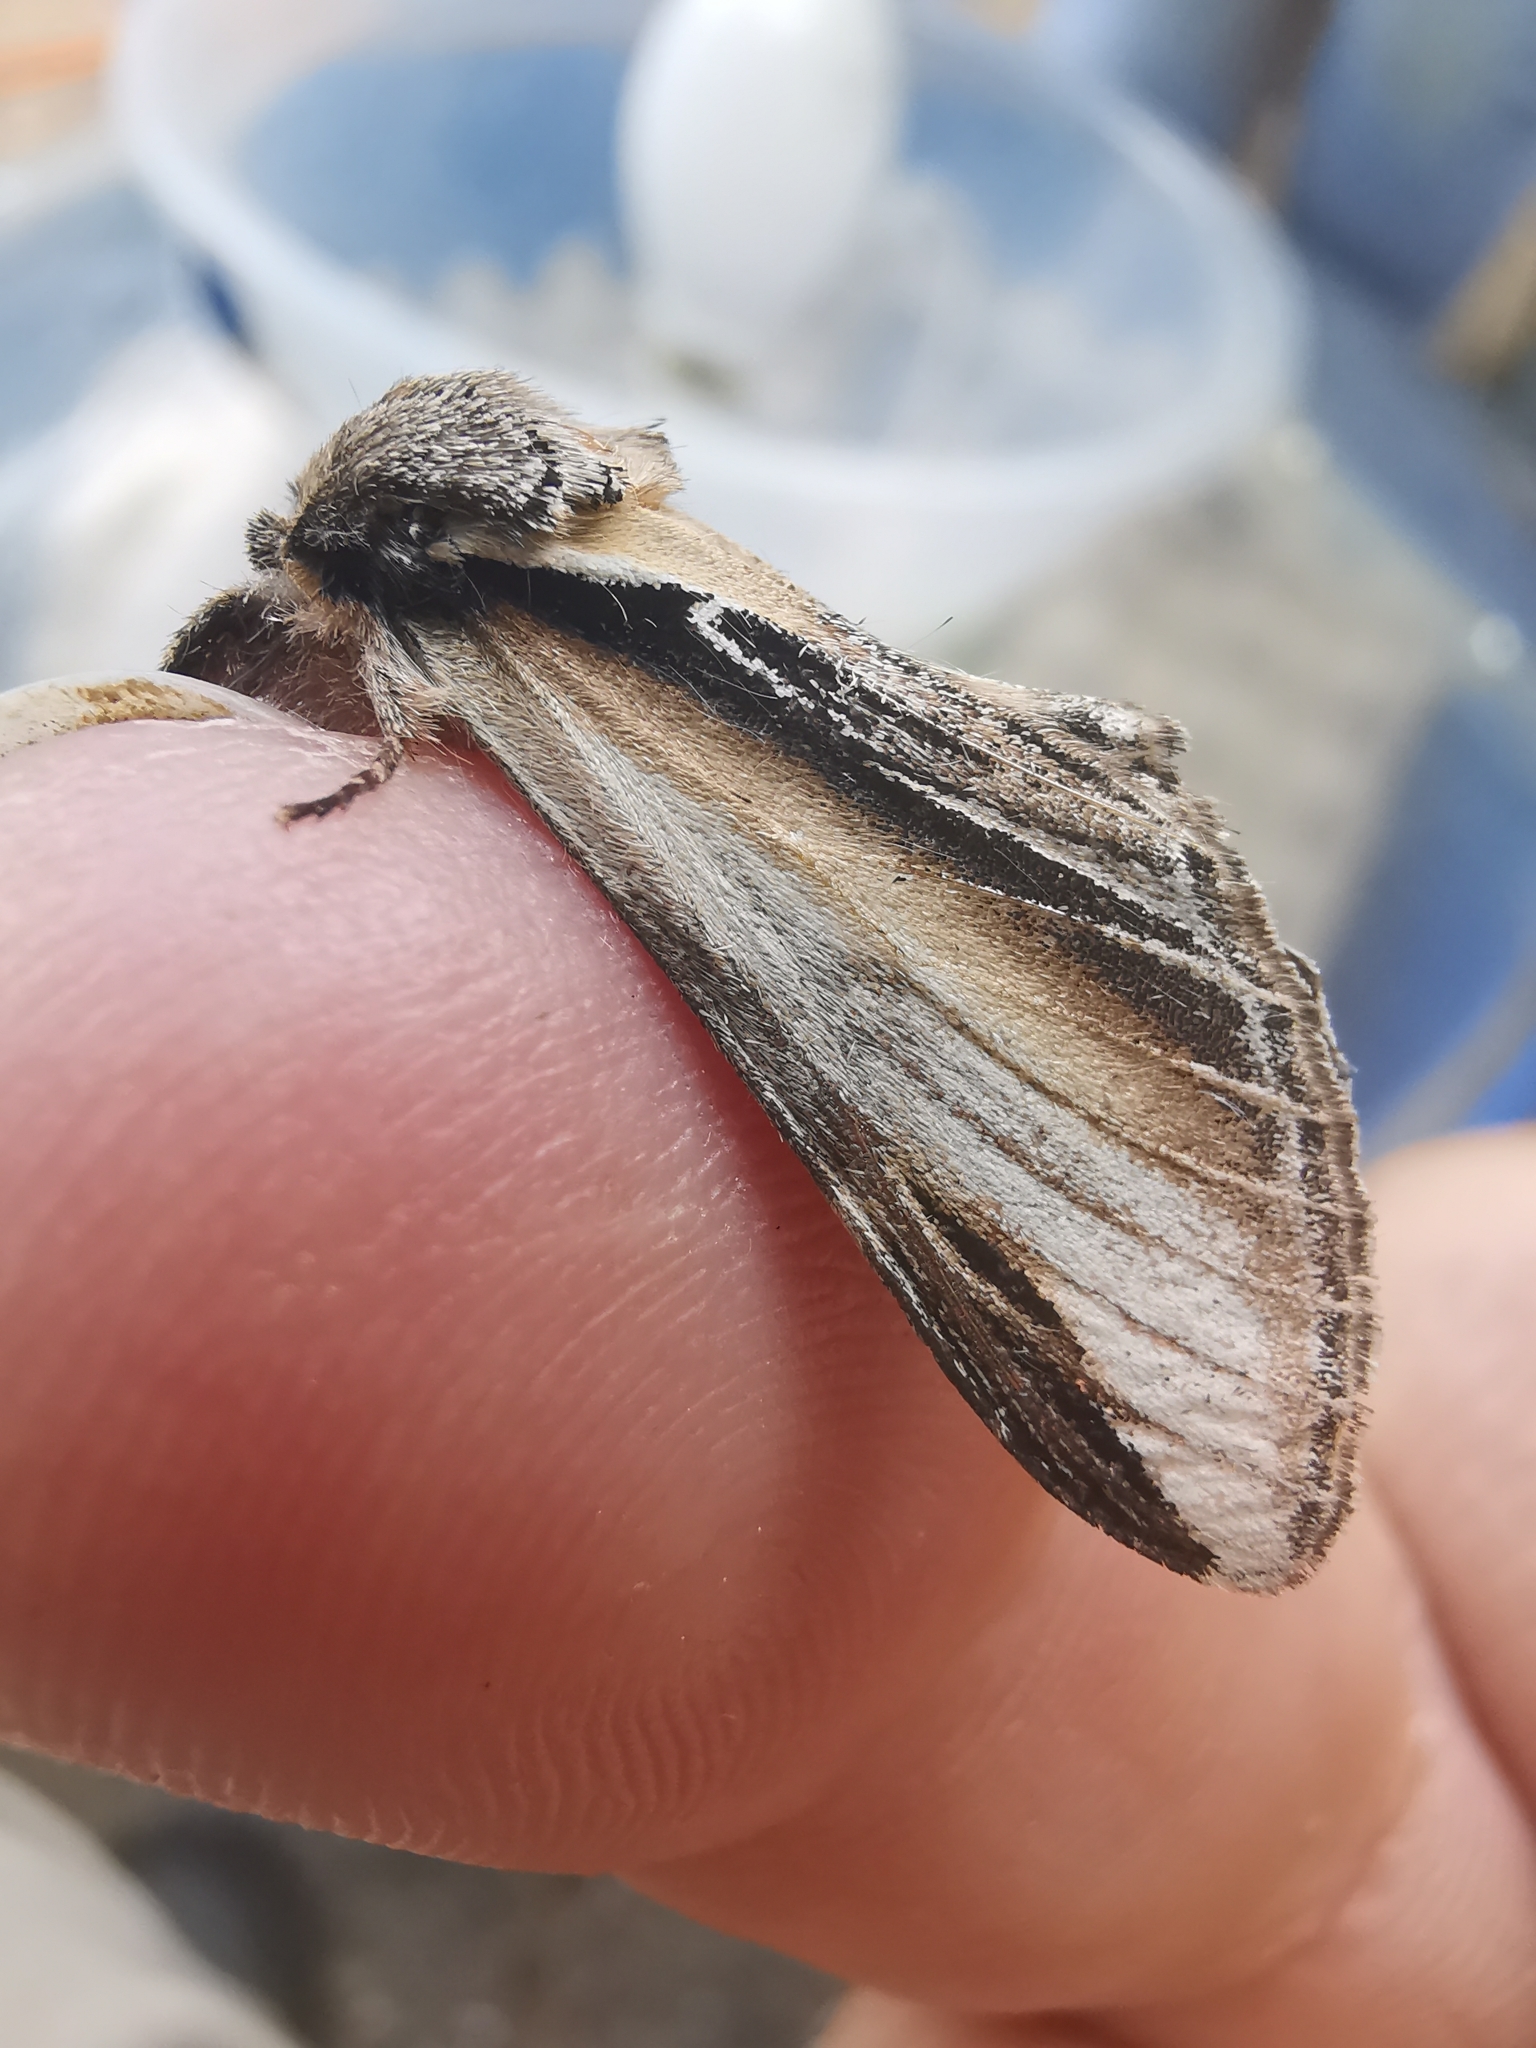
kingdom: Animalia
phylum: Arthropoda
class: Insecta
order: Lepidoptera
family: Notodontidae
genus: Pheosia
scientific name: Pheosia tremula
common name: Swallow prominent
